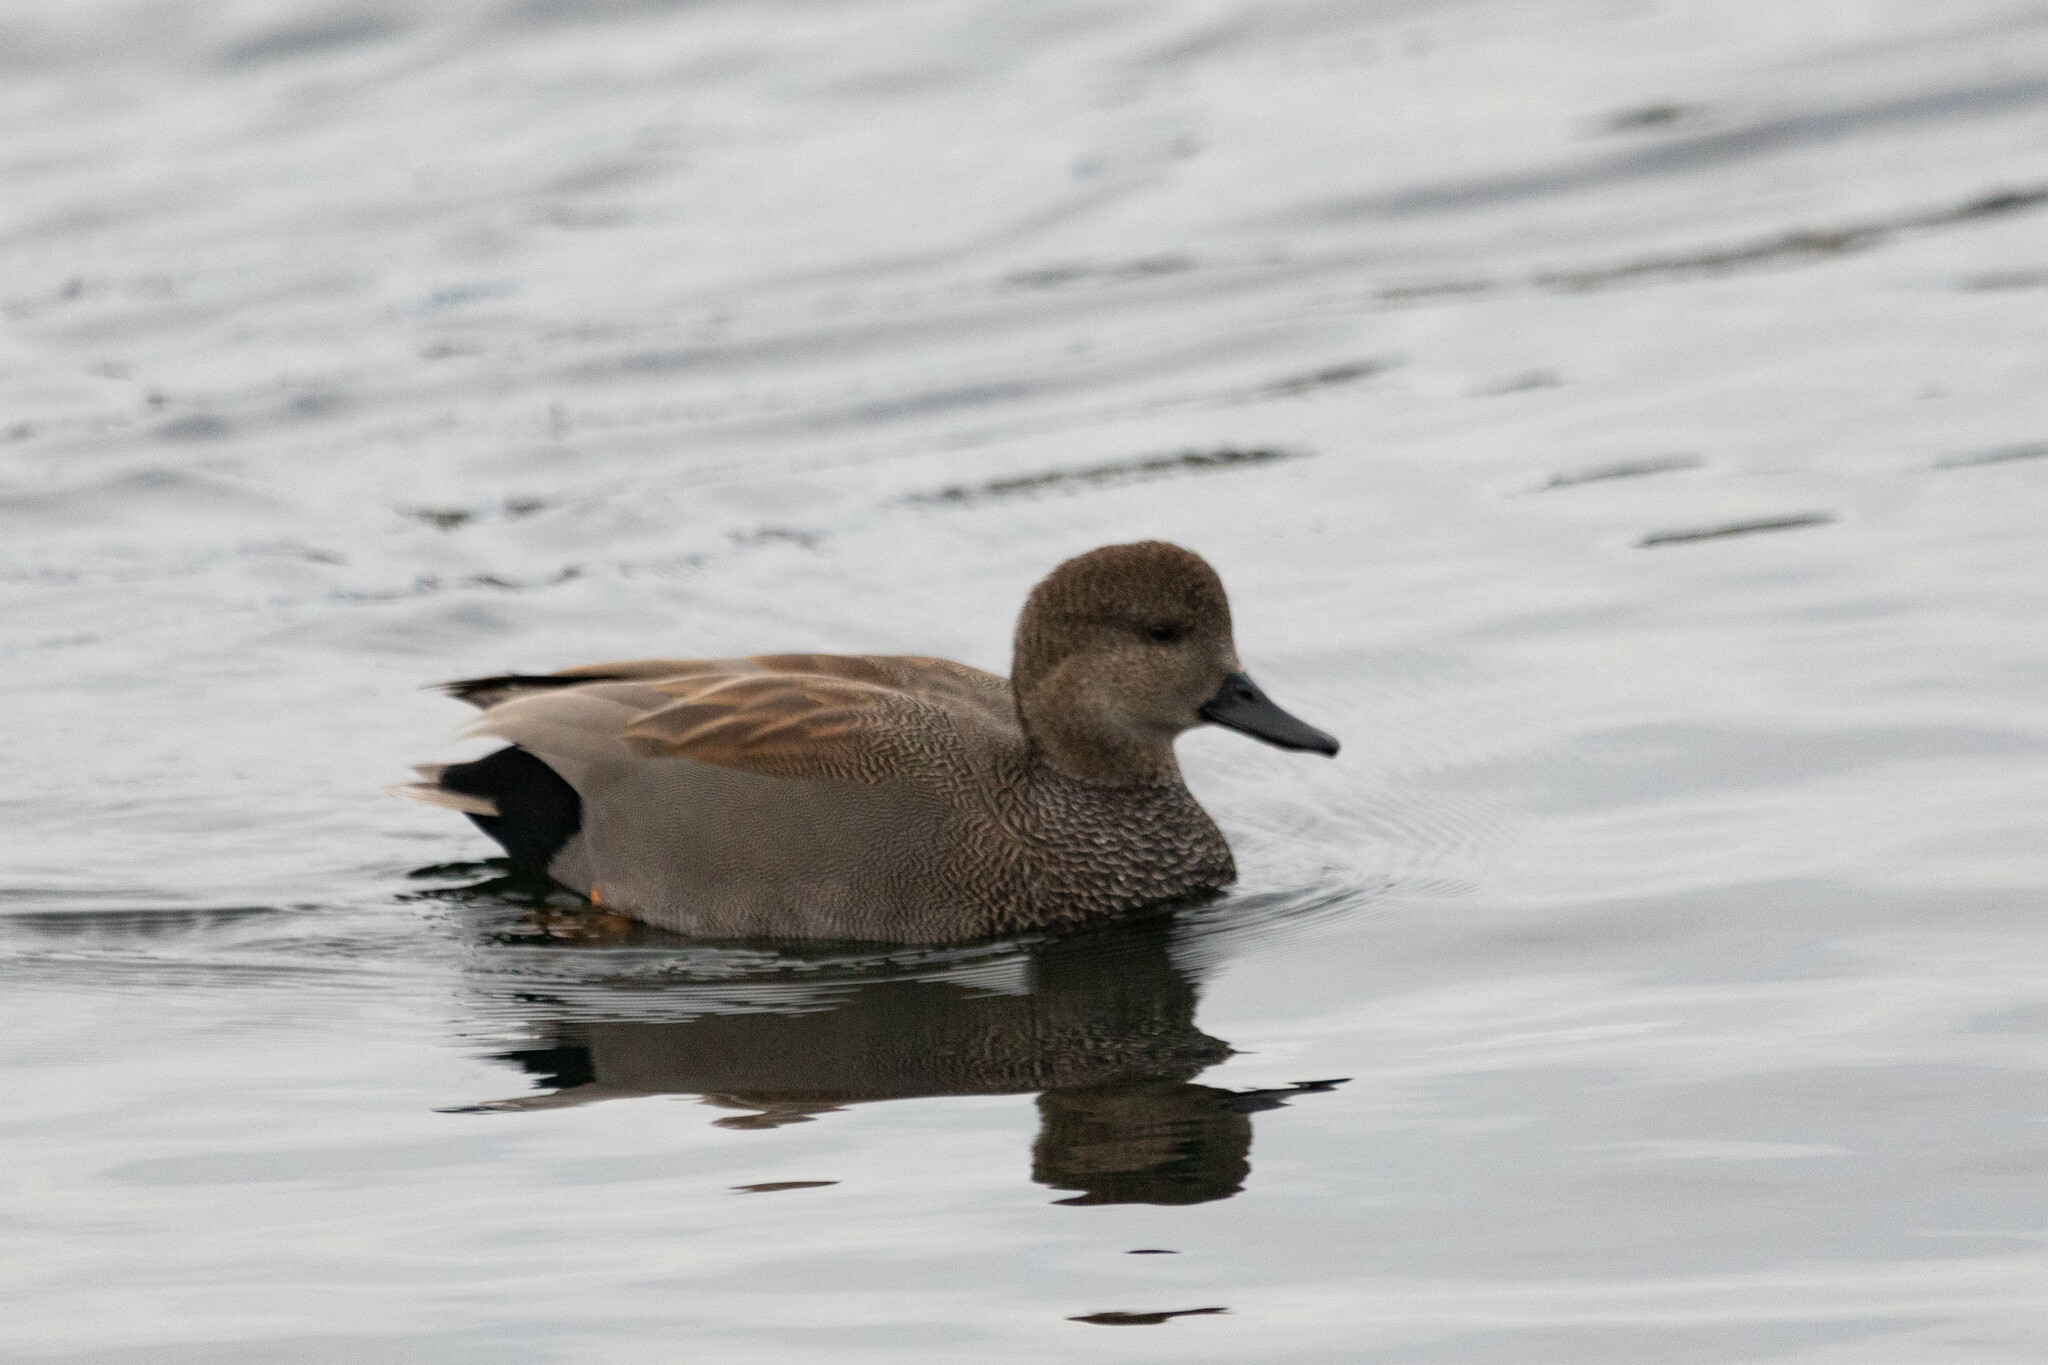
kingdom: Animalia
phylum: Chordata
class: Aves
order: Anseriformes
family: Anatidae
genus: Mareca
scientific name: Mareca strepera
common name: Gadwall
